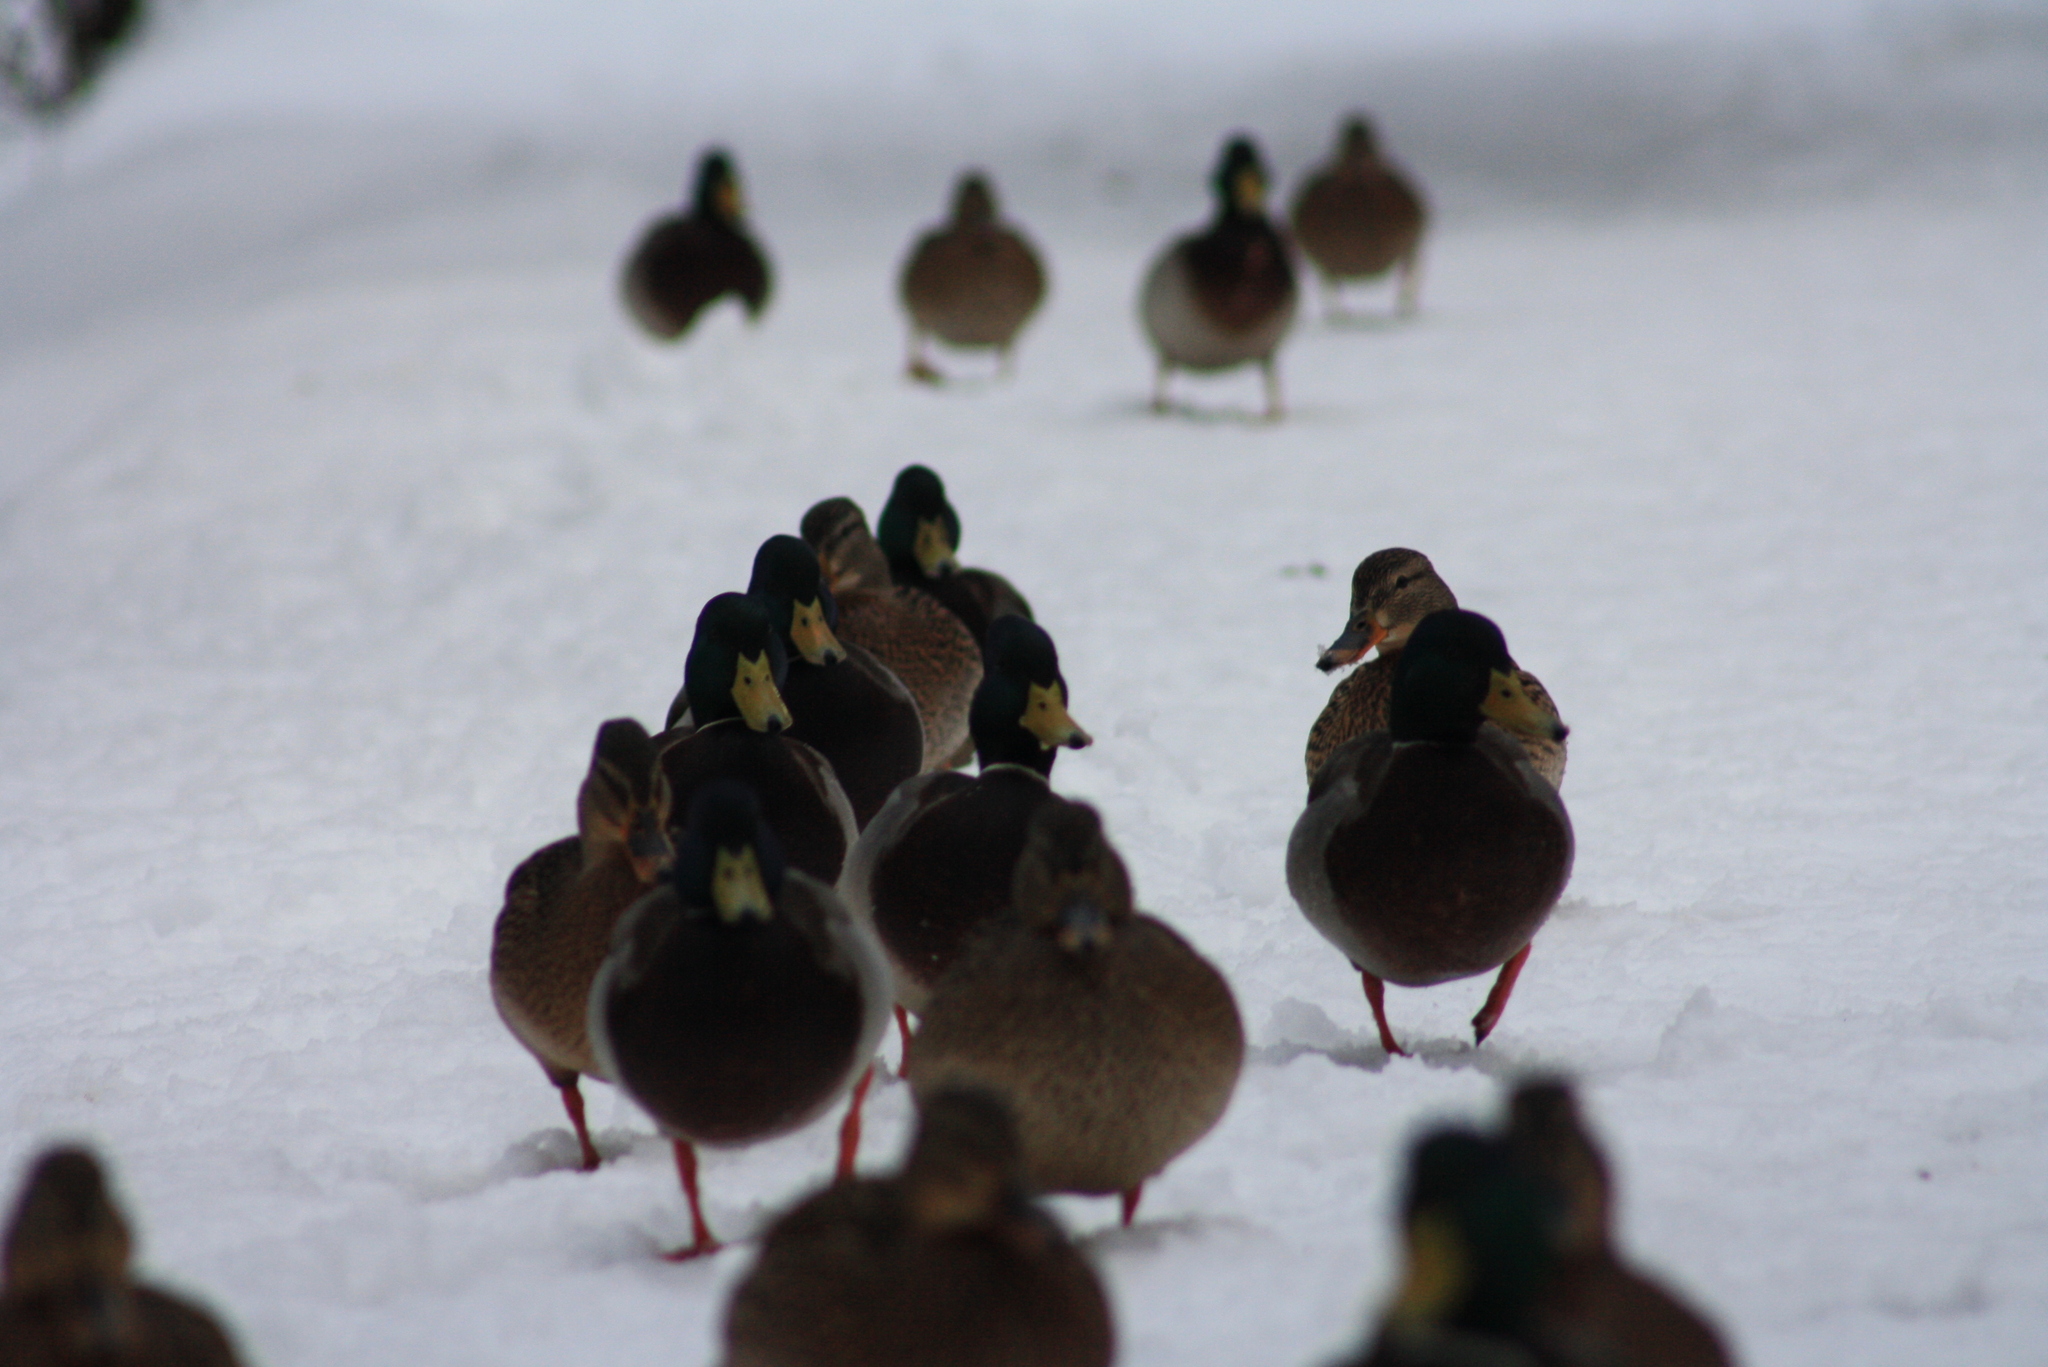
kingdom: Animalia
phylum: Chordata
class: Aves
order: Anseriformes
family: Anatidae
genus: Anas
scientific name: Anas platyrhynchos
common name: Mallard
